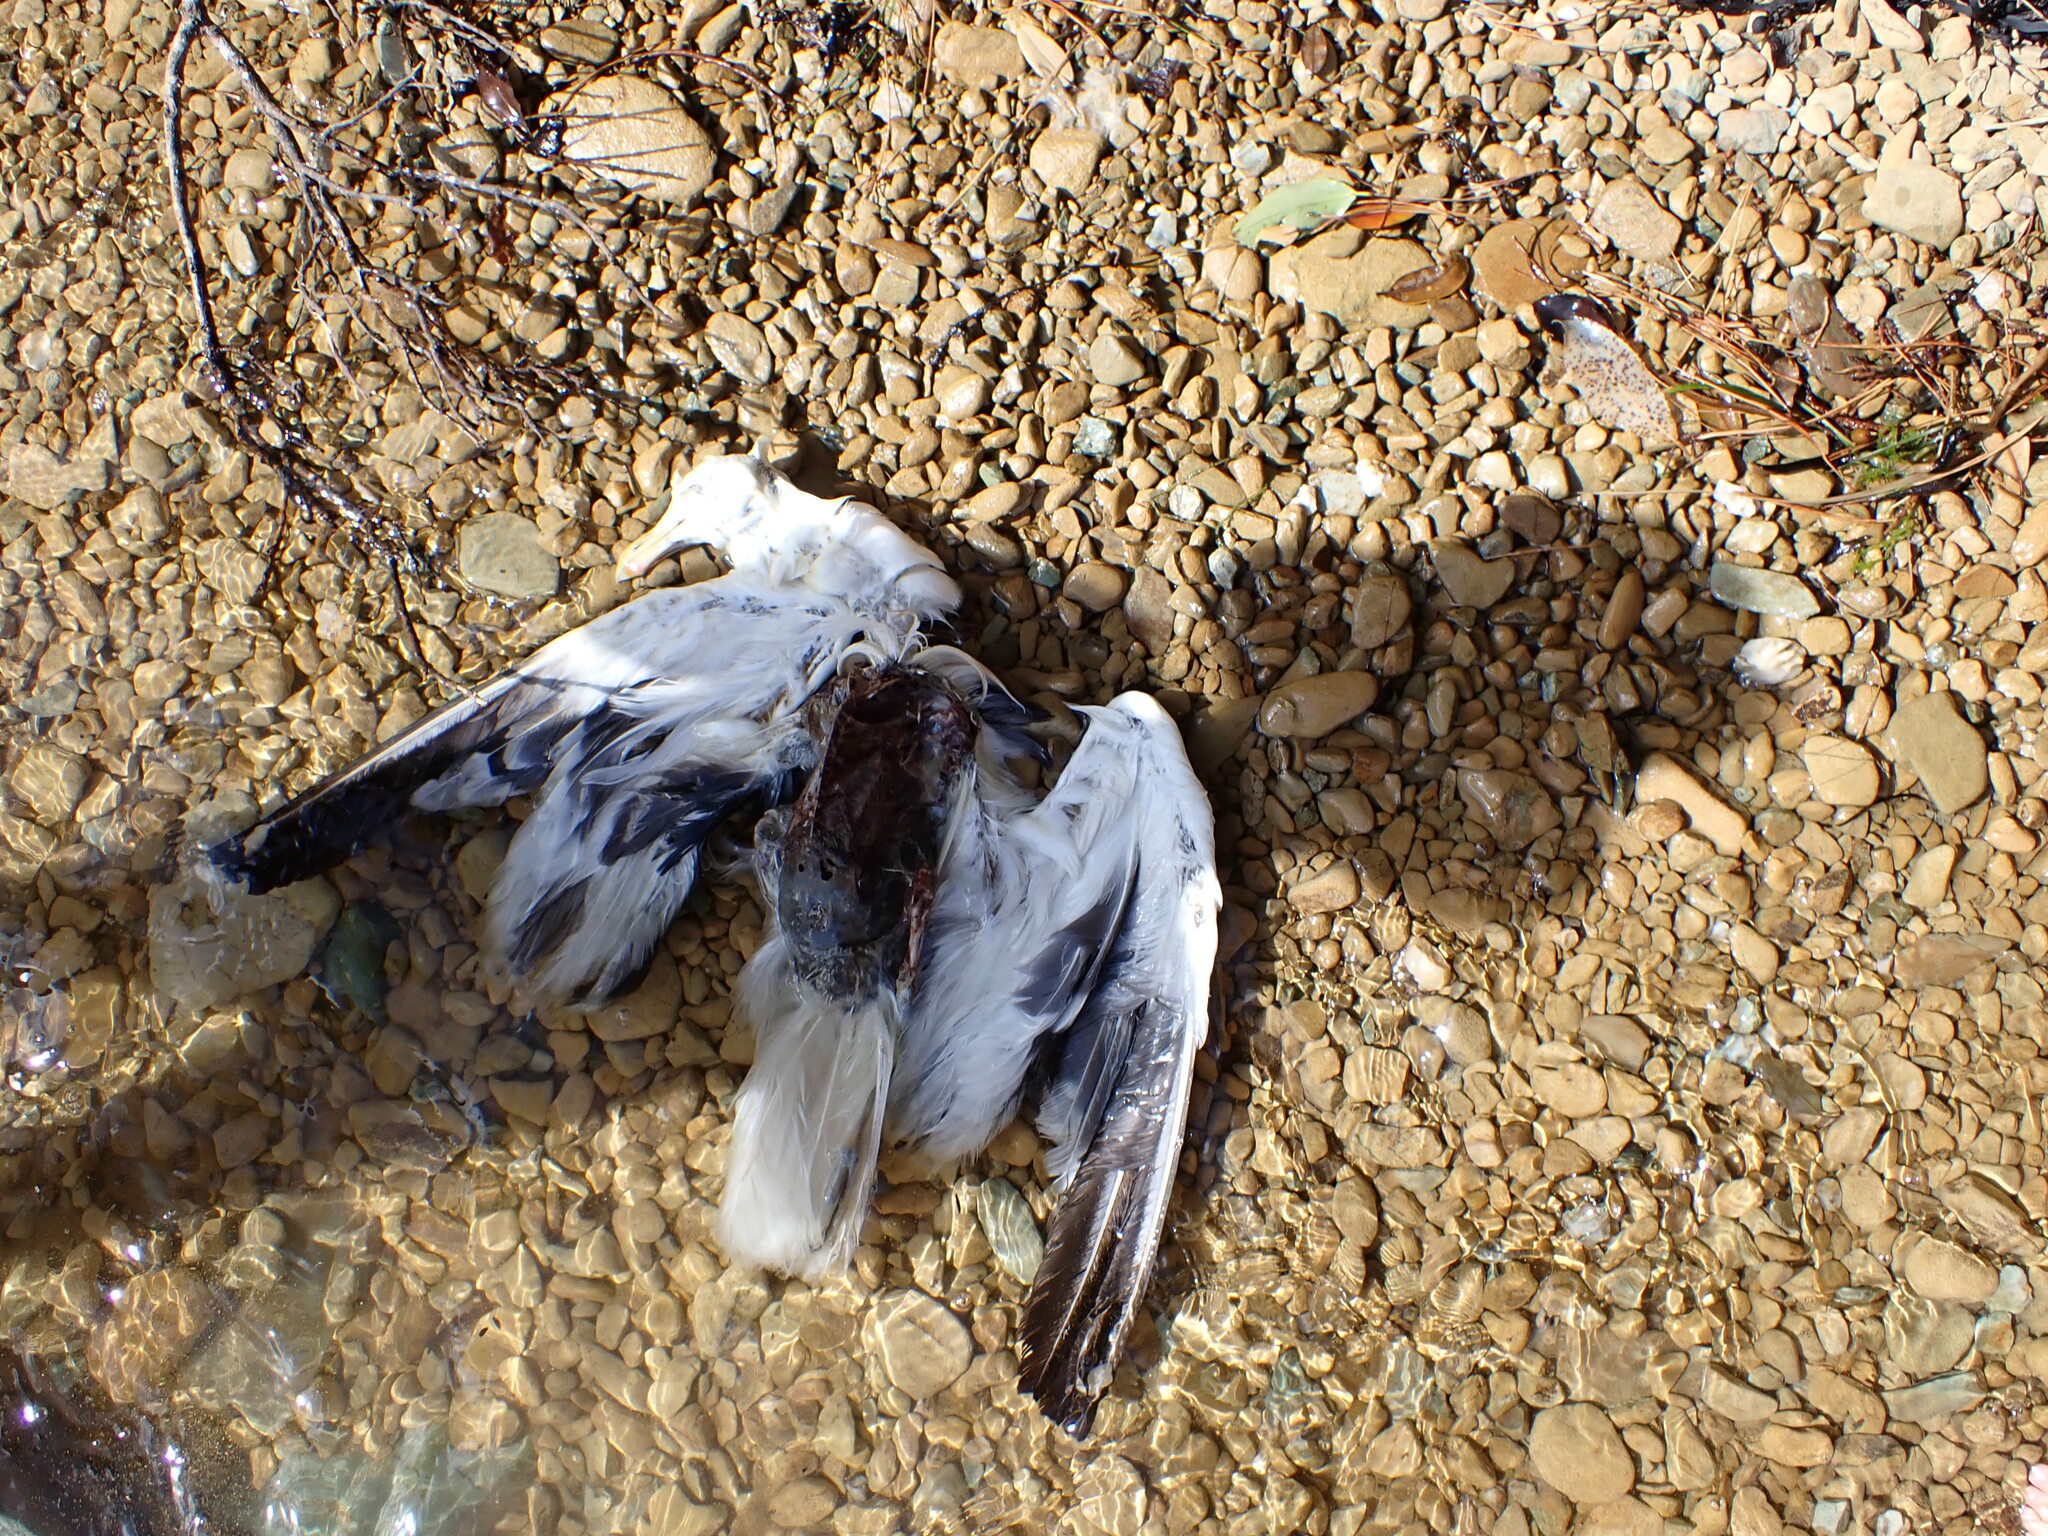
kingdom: Animalia
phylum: Chordata
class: Aves
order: Charadriiformes
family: Laridae
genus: Larus
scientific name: Larus dominicanus
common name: Kelp gull
